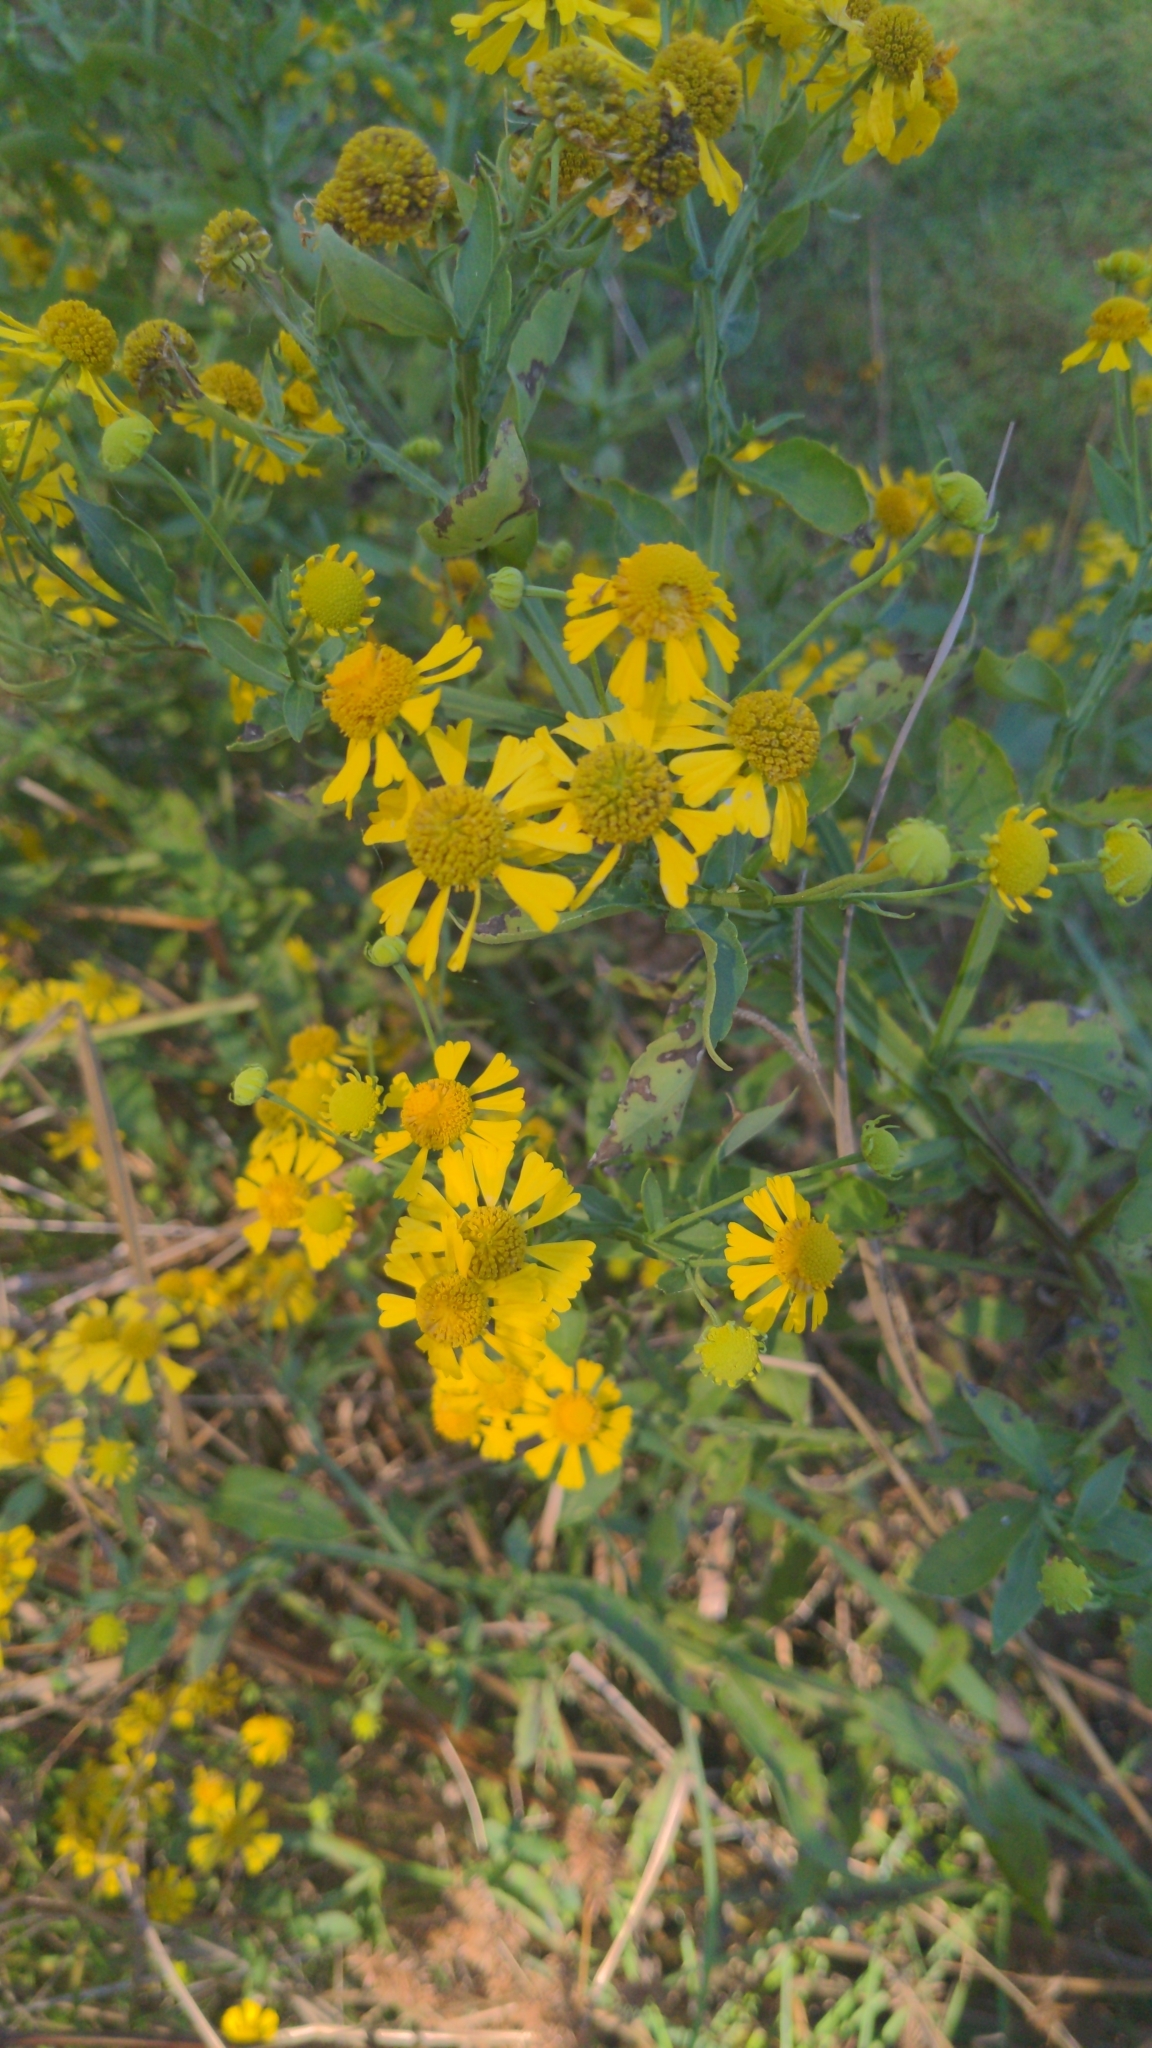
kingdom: Plantae
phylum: Tracheophyta
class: Magnoliopsida
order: Asterales
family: Asteraceae
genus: Helenium
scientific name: Helenium autumnale
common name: Sneezeweed
